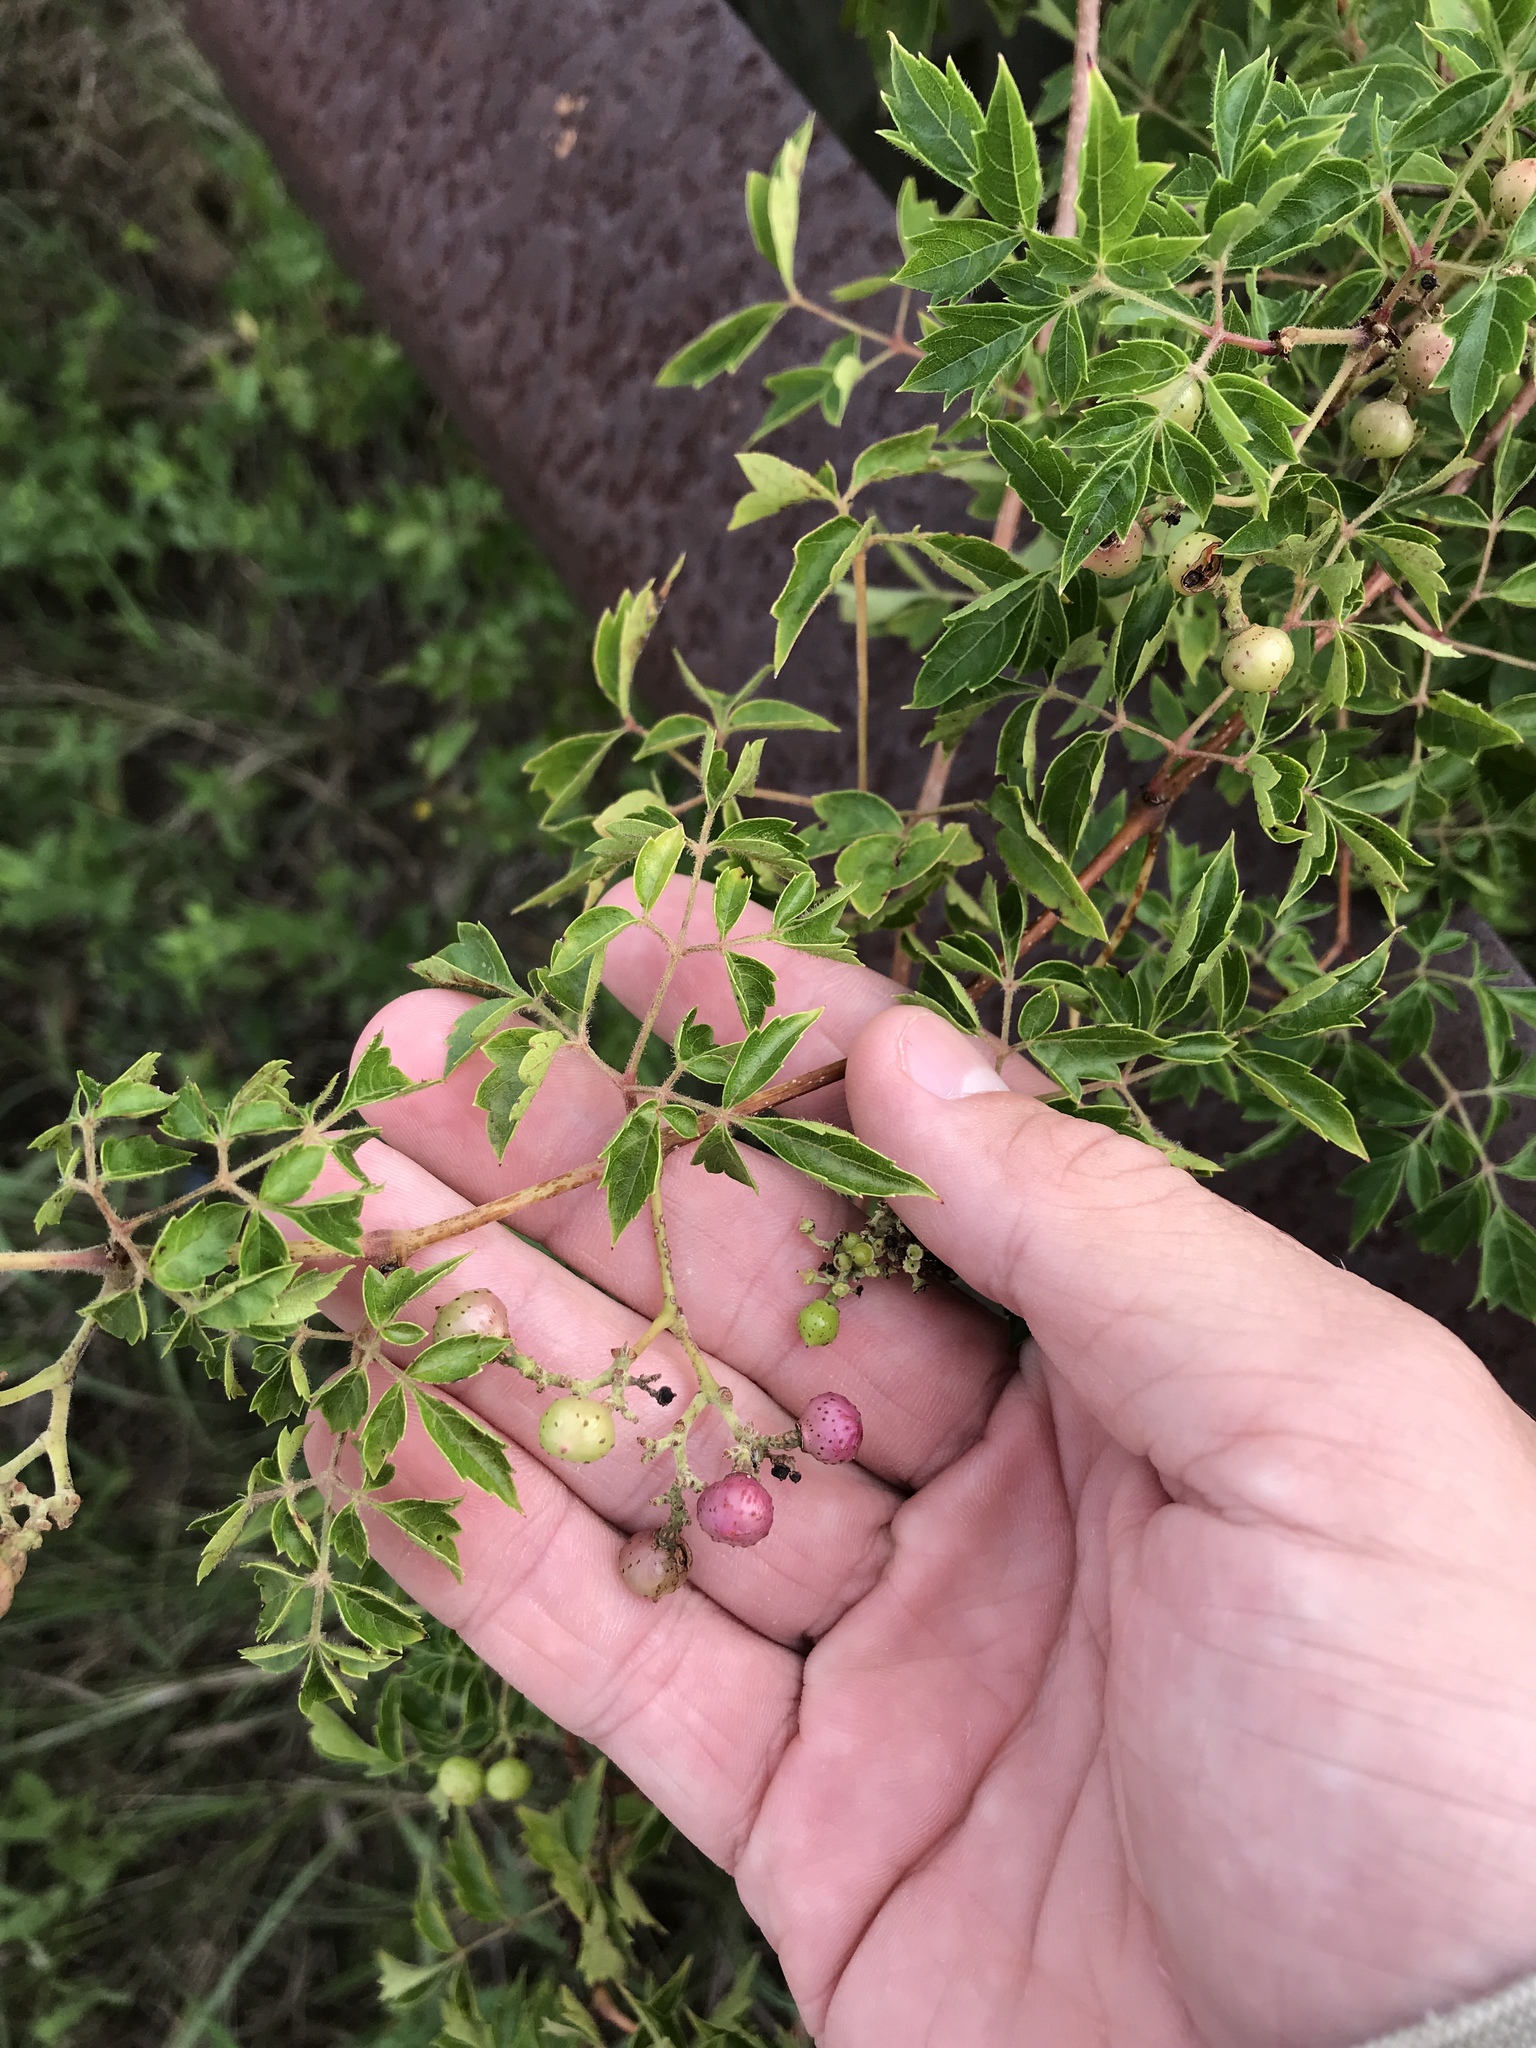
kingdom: Plantae
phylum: Tracheophyta
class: Magnoliopsida
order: Vitales
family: Vitaceae
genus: Nekemias
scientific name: Nekemias arborea
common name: Peppervine
